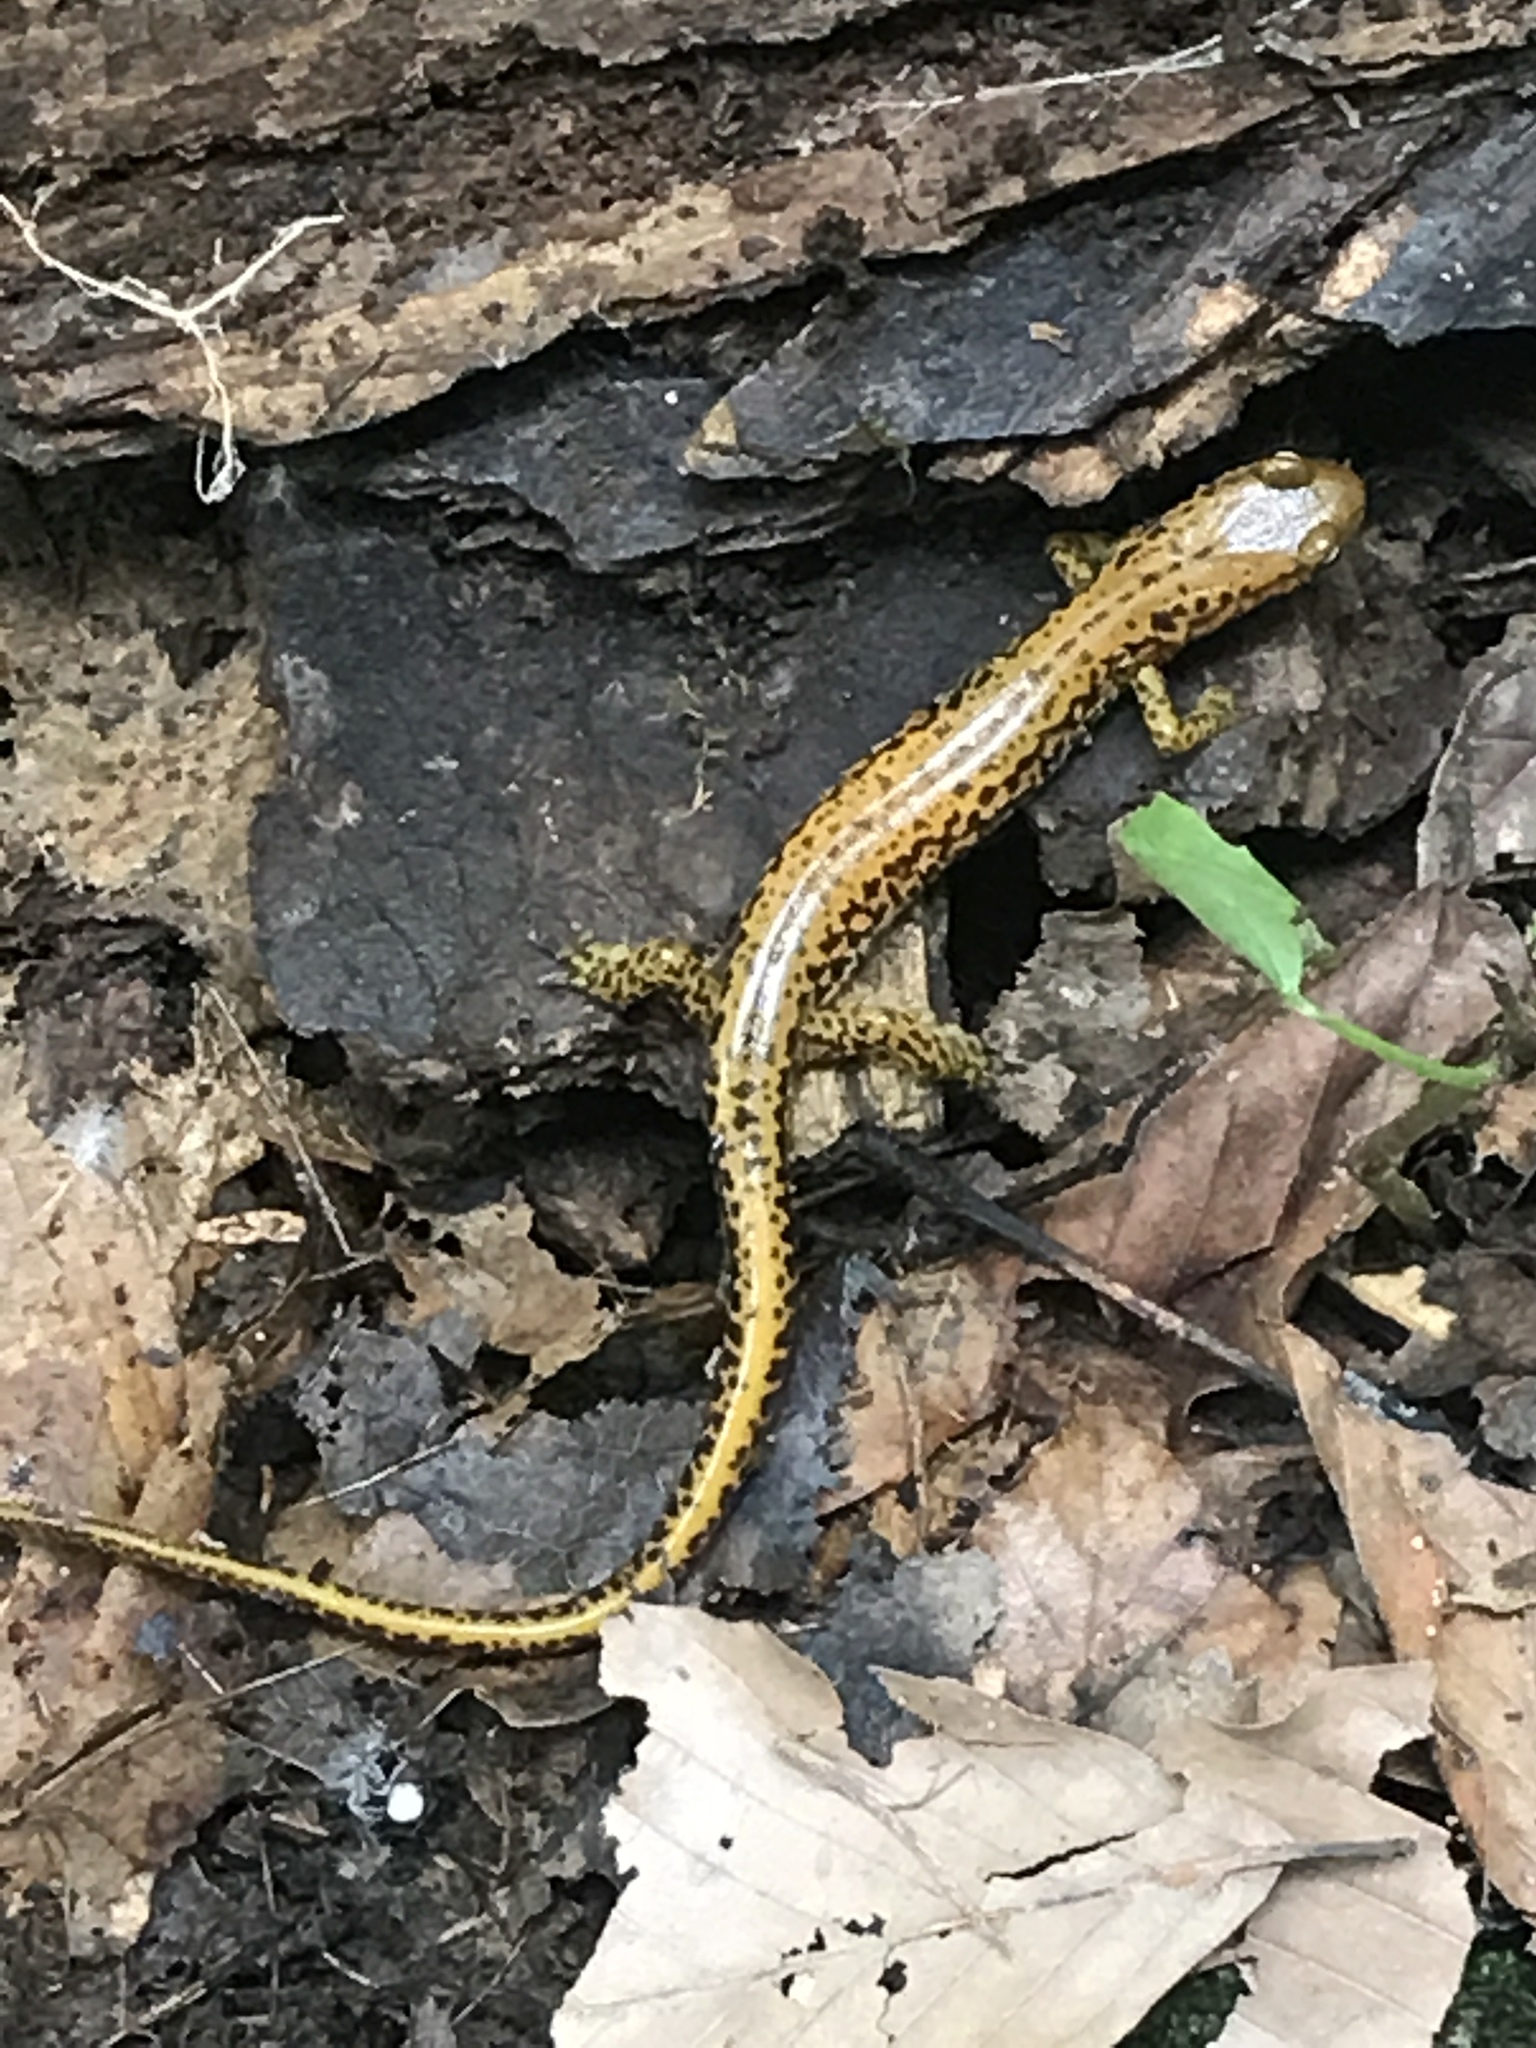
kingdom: Animalia
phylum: Chordata
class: Amphibia
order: Caudata
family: Plethodontidae
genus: Eurycea
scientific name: Eurycea longicauda
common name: Long-tailed salamander
